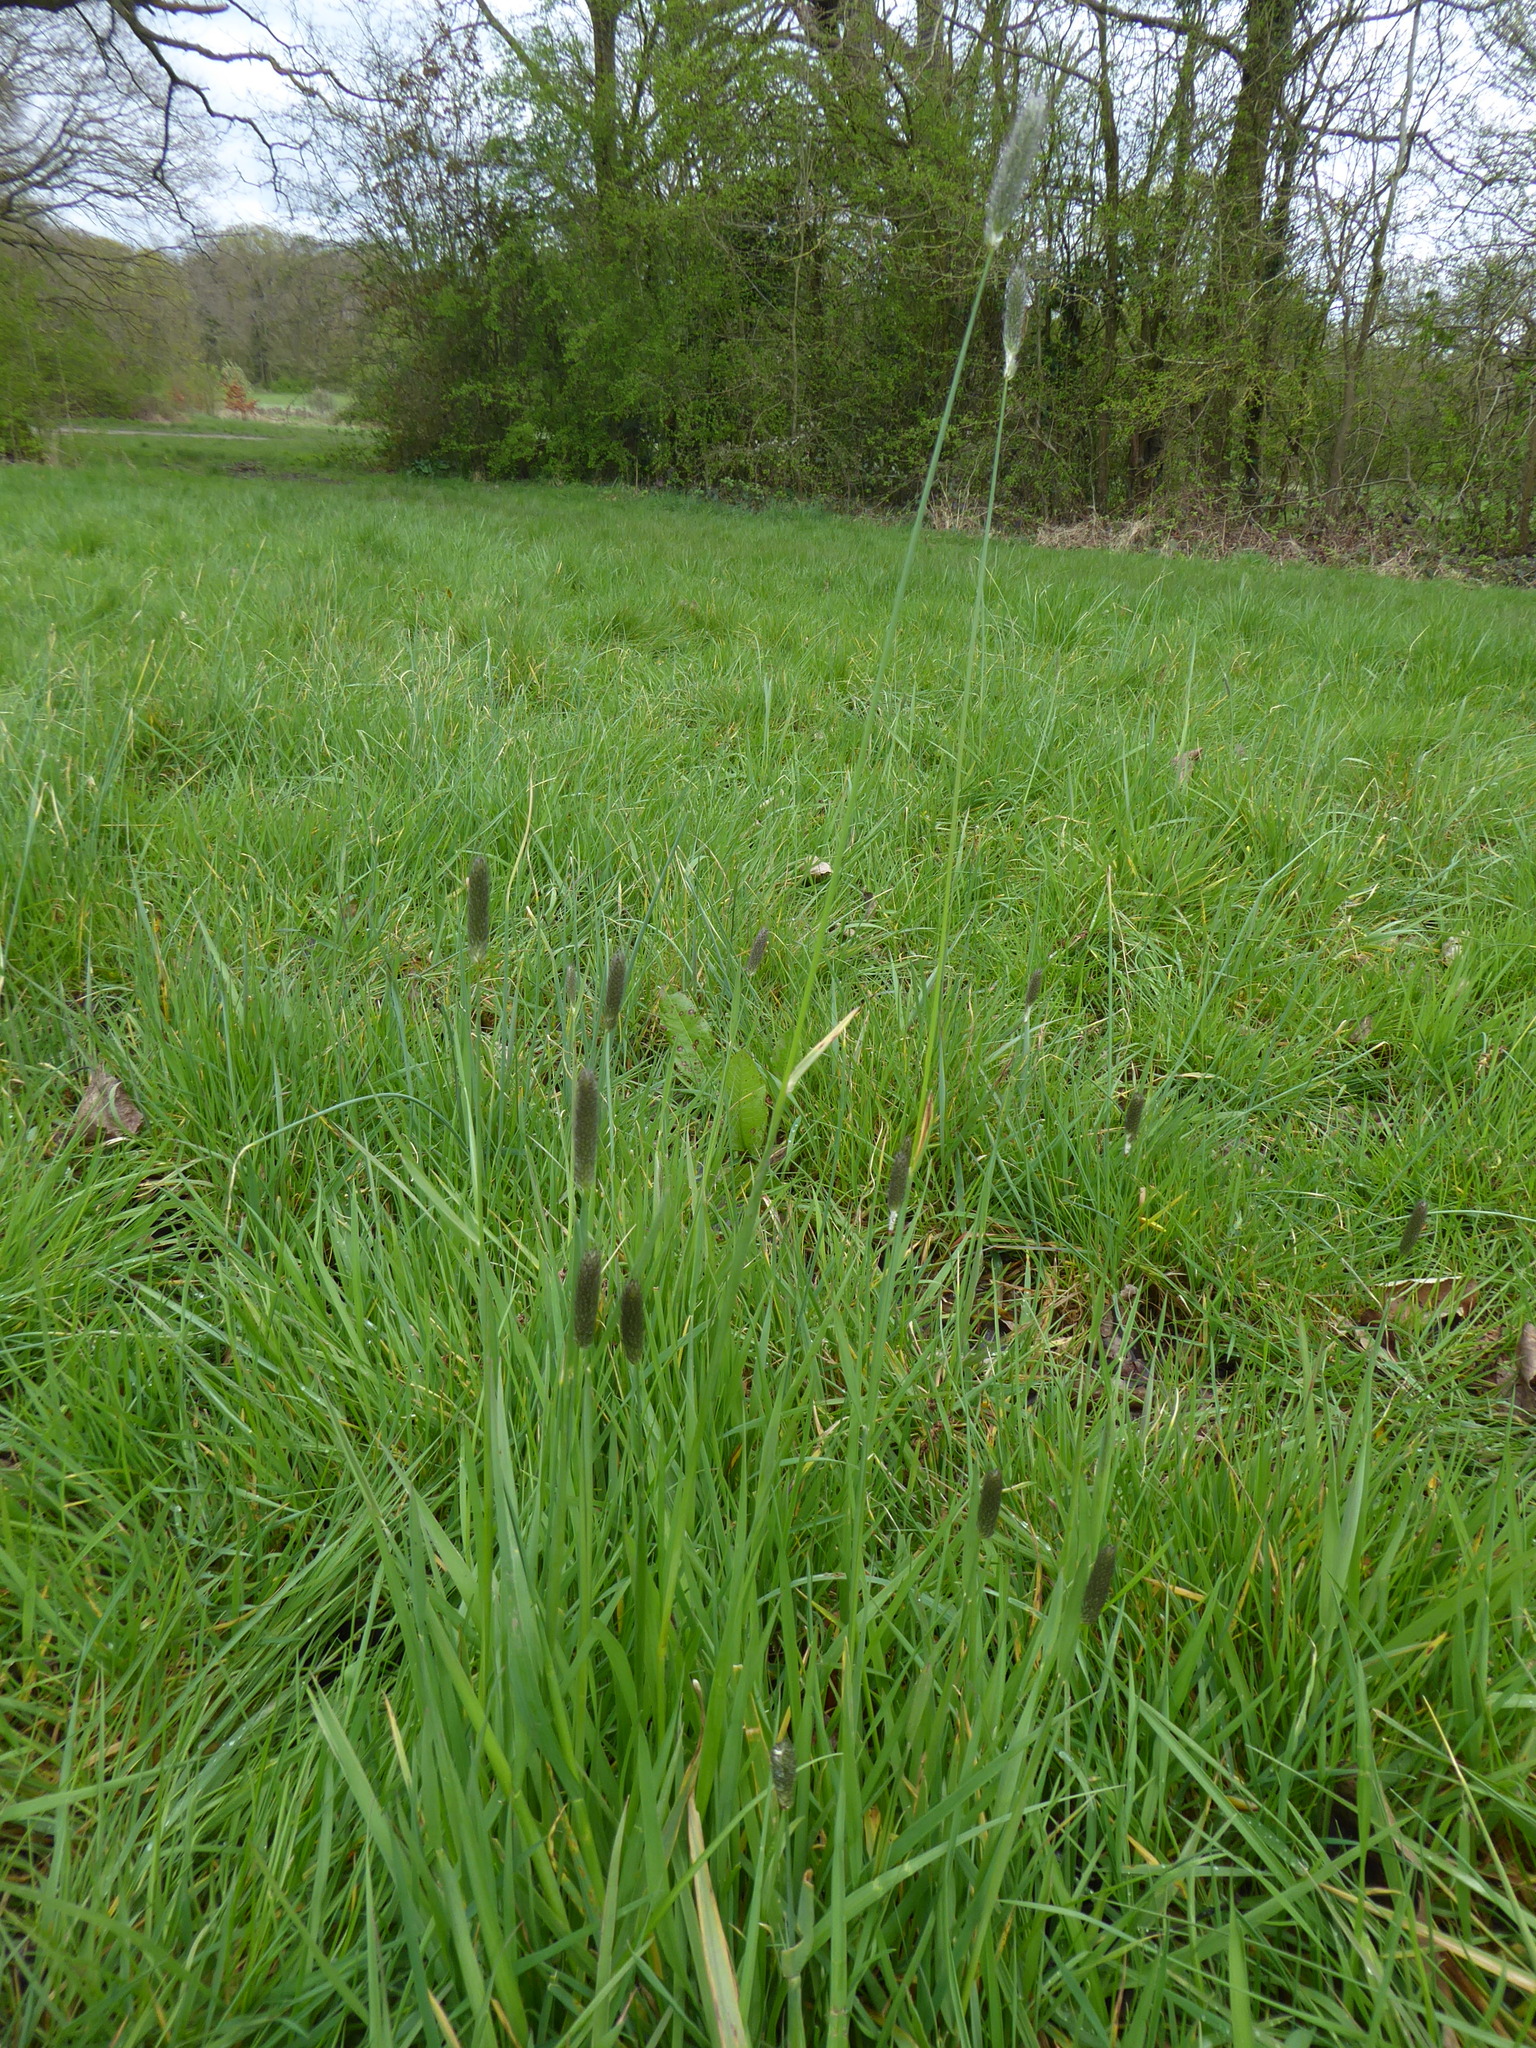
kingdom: Plantae
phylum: Tracheophyta
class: Liliopsida
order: Poales
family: Poaceae
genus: Alopecurus
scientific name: Alopecurus pratensis
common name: Meadow foxtail
